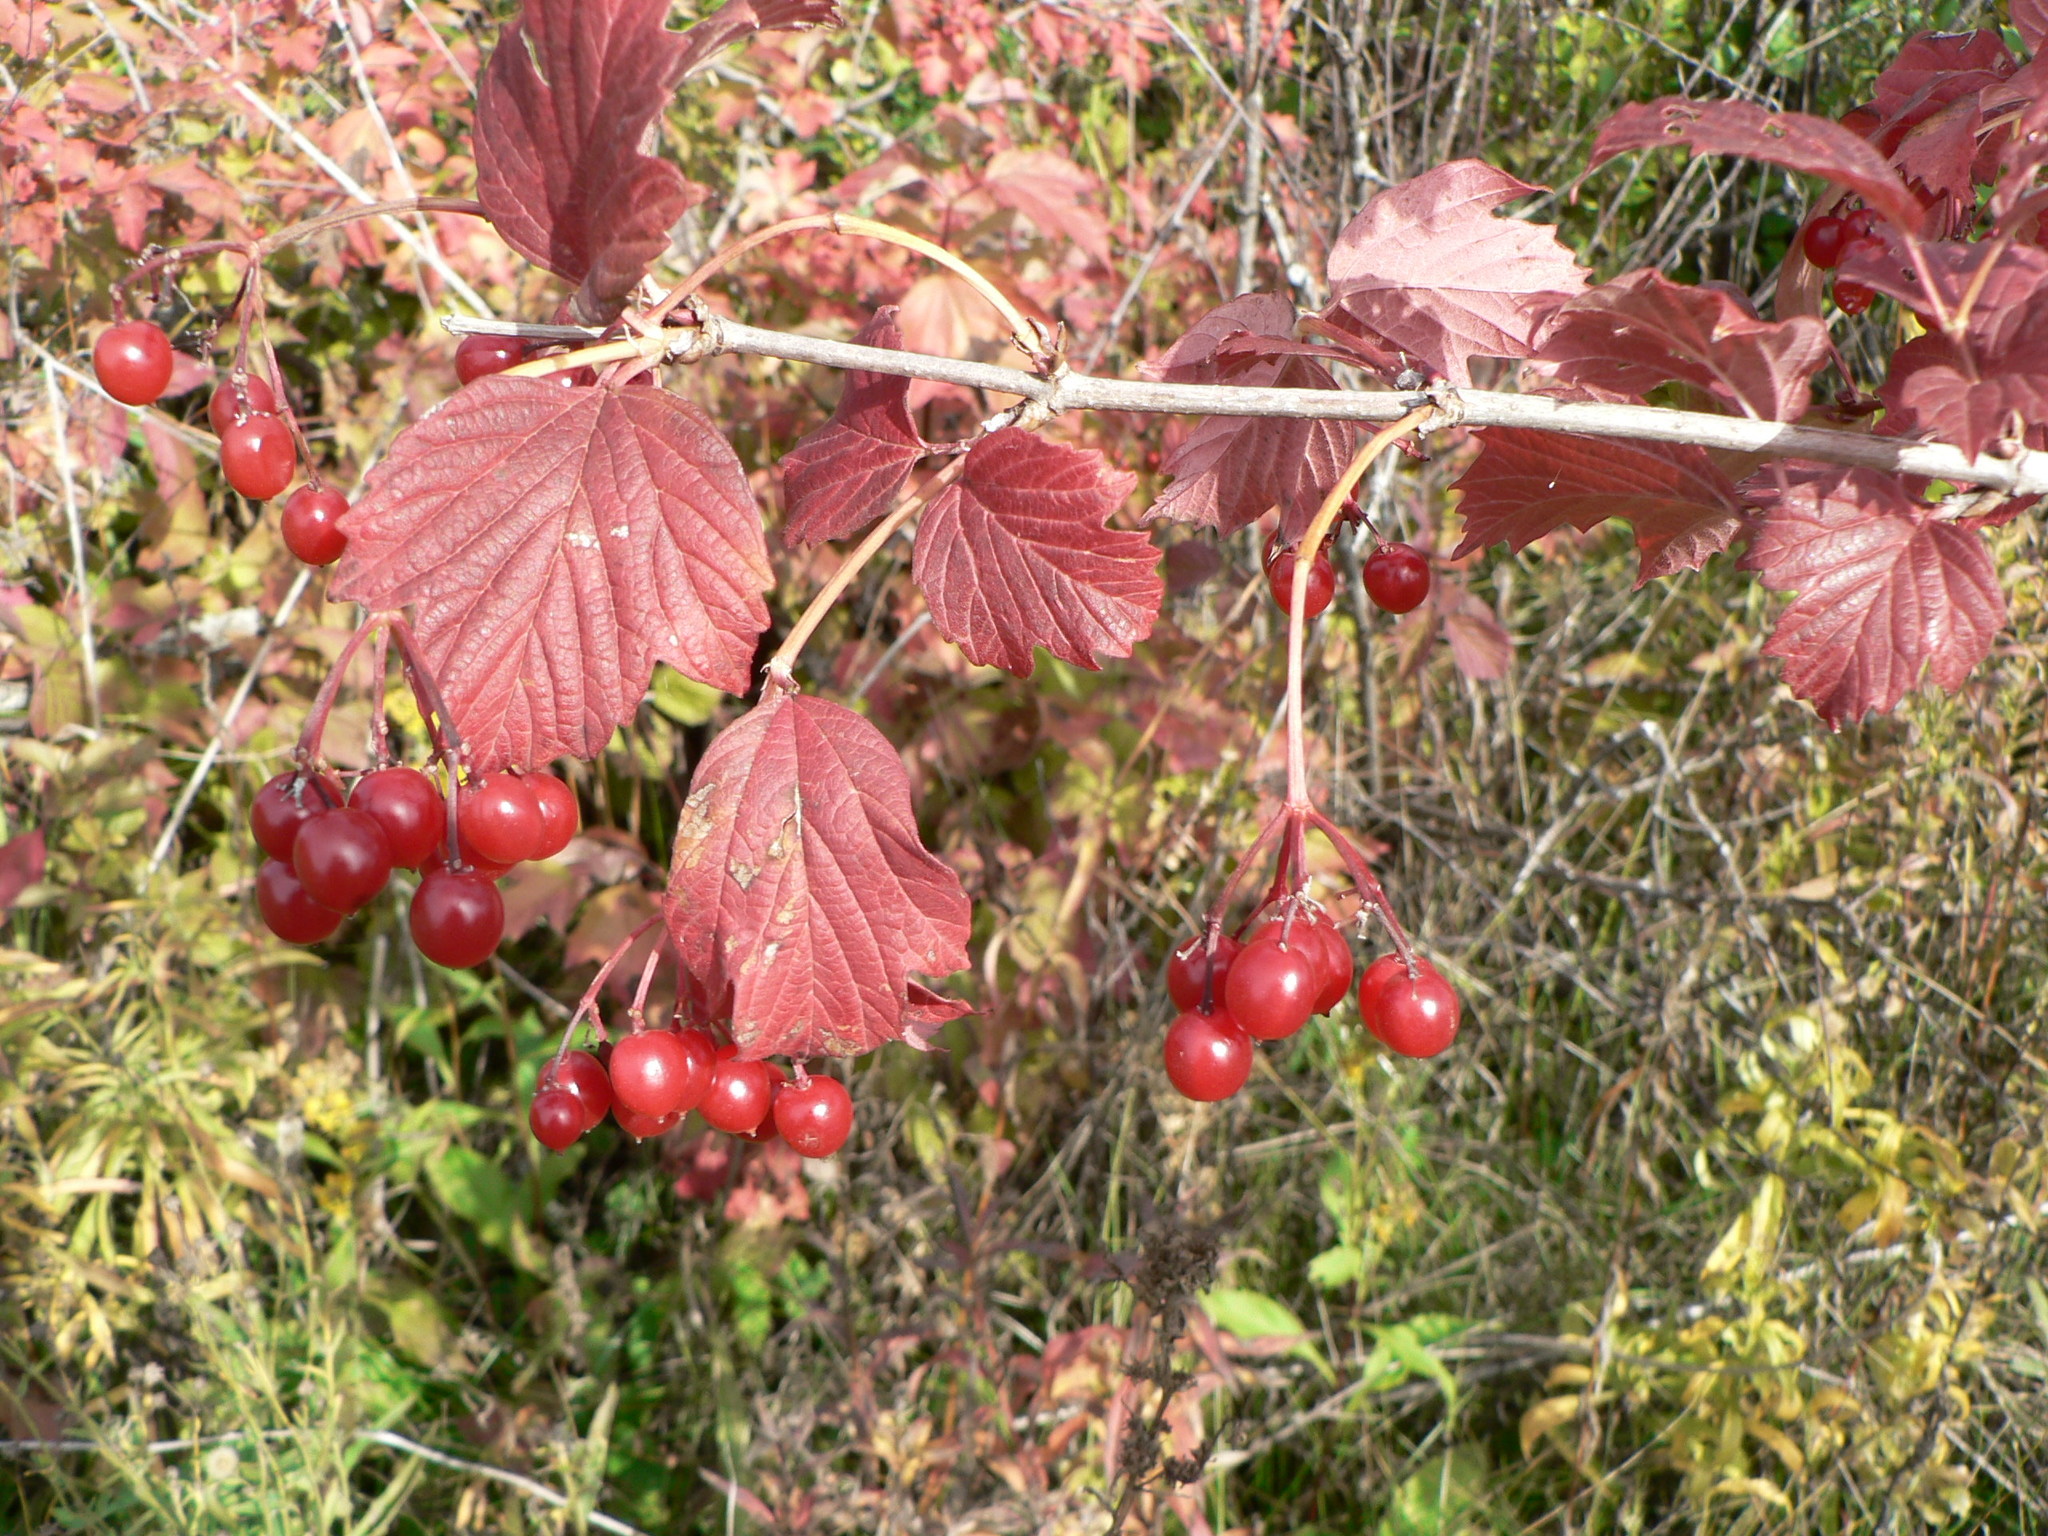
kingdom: Plantae
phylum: Tracheophyta
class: Magnoliopsida
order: Dipsacales
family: Viburnaceae
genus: Viburnum
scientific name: Viburnum opulus
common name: Guelder-rose
